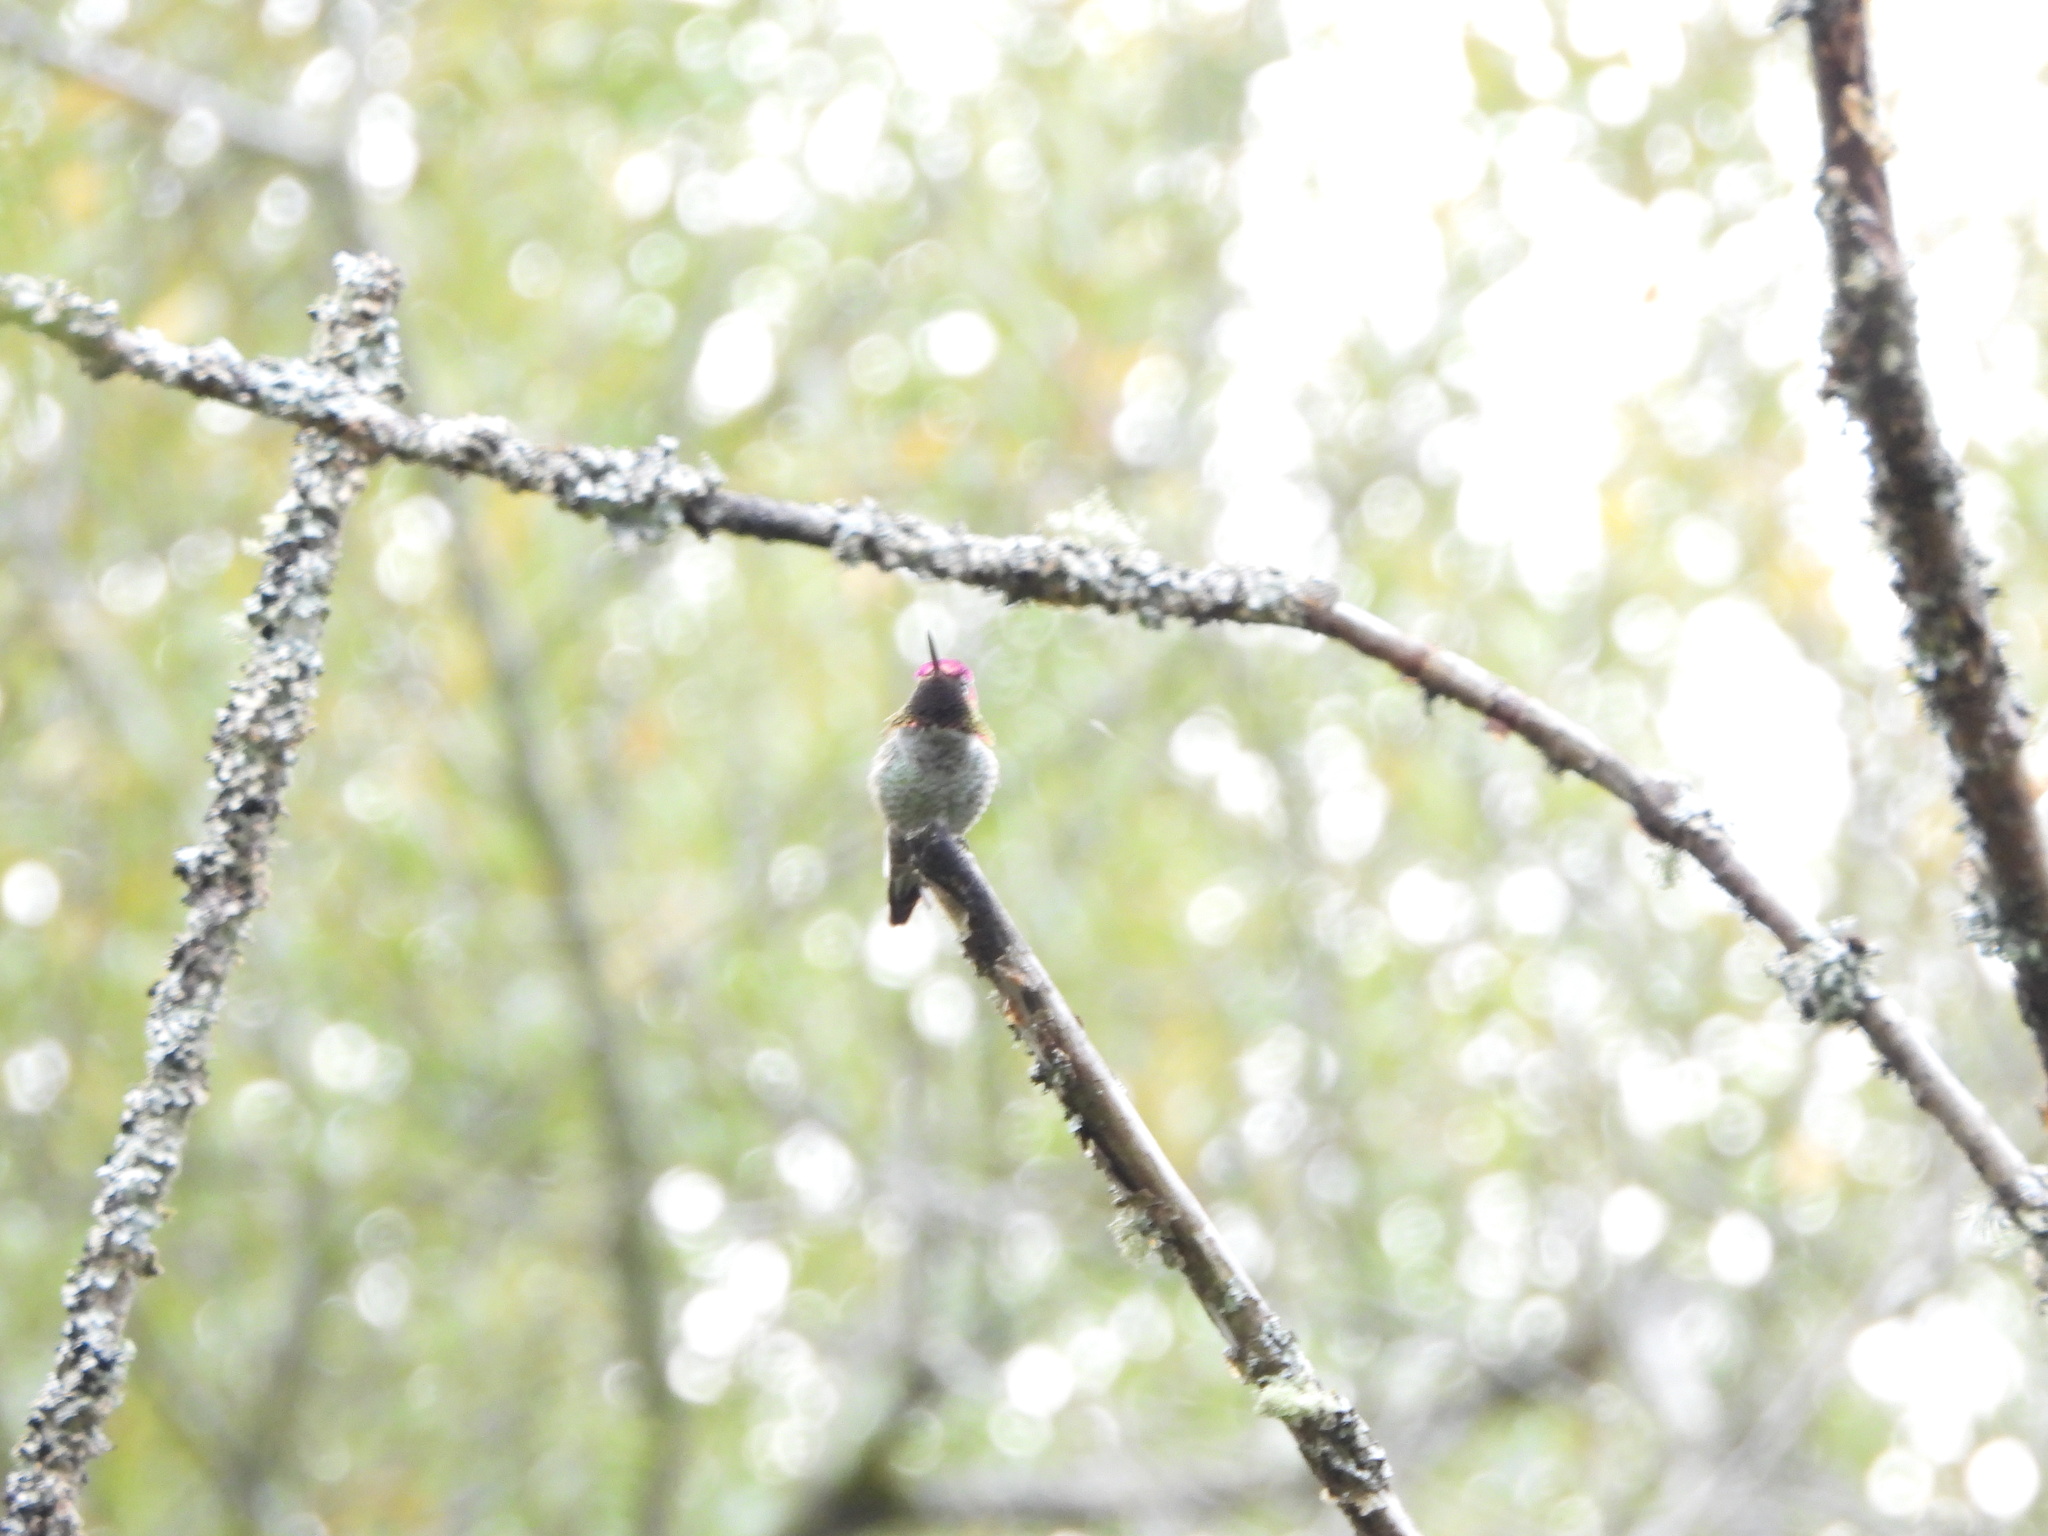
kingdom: Animalia
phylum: Chordata
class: Aves
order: Apodiformes
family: Trochilidae
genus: Calypte
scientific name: Calypte anna
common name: Anna's hummingbird
